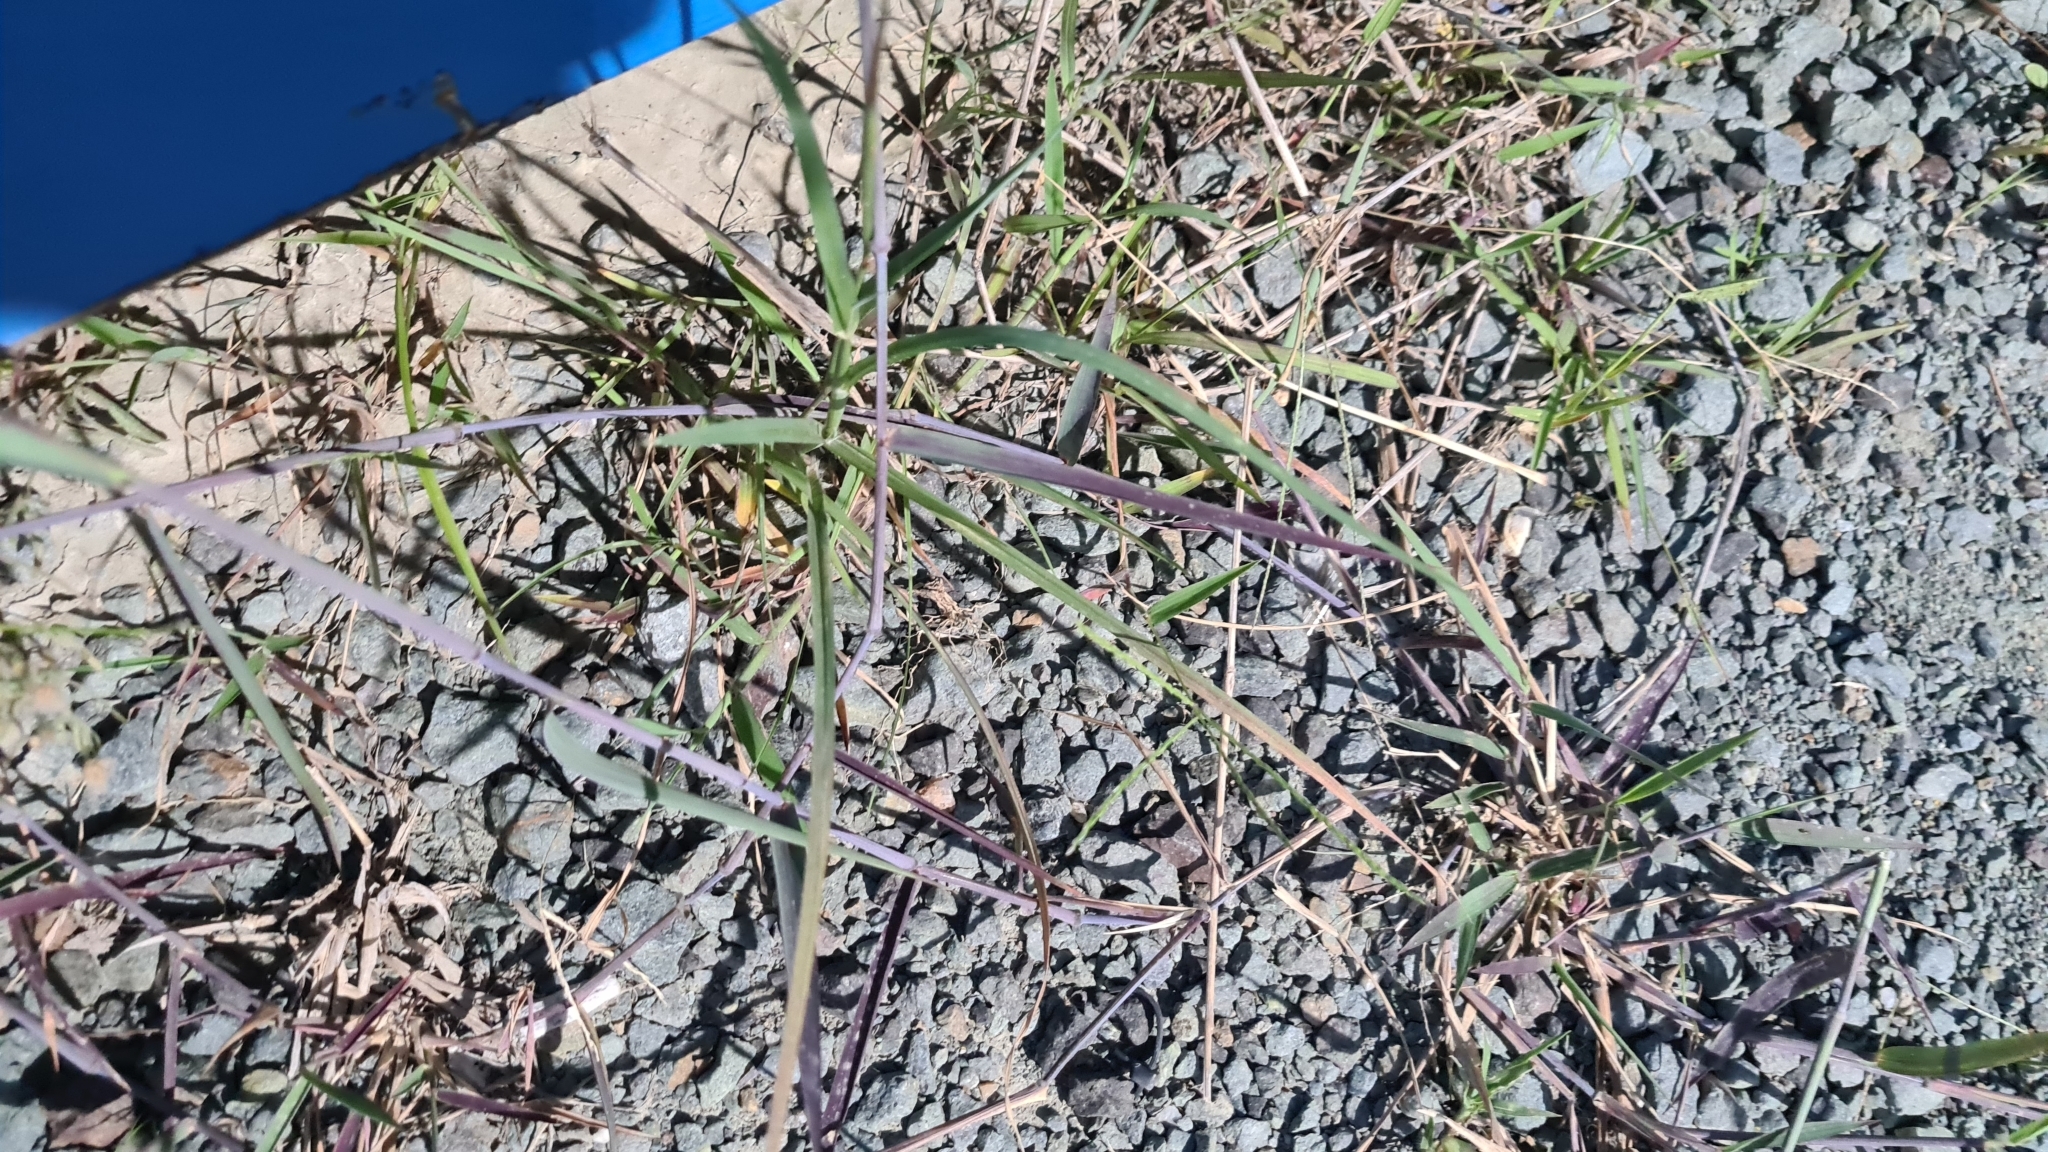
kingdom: Plantae
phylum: Tracheophyta
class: Liliopsida
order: Poales
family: Poaceae
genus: Chloris
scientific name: Chloris virgata
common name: Feathery rhodes-grass
